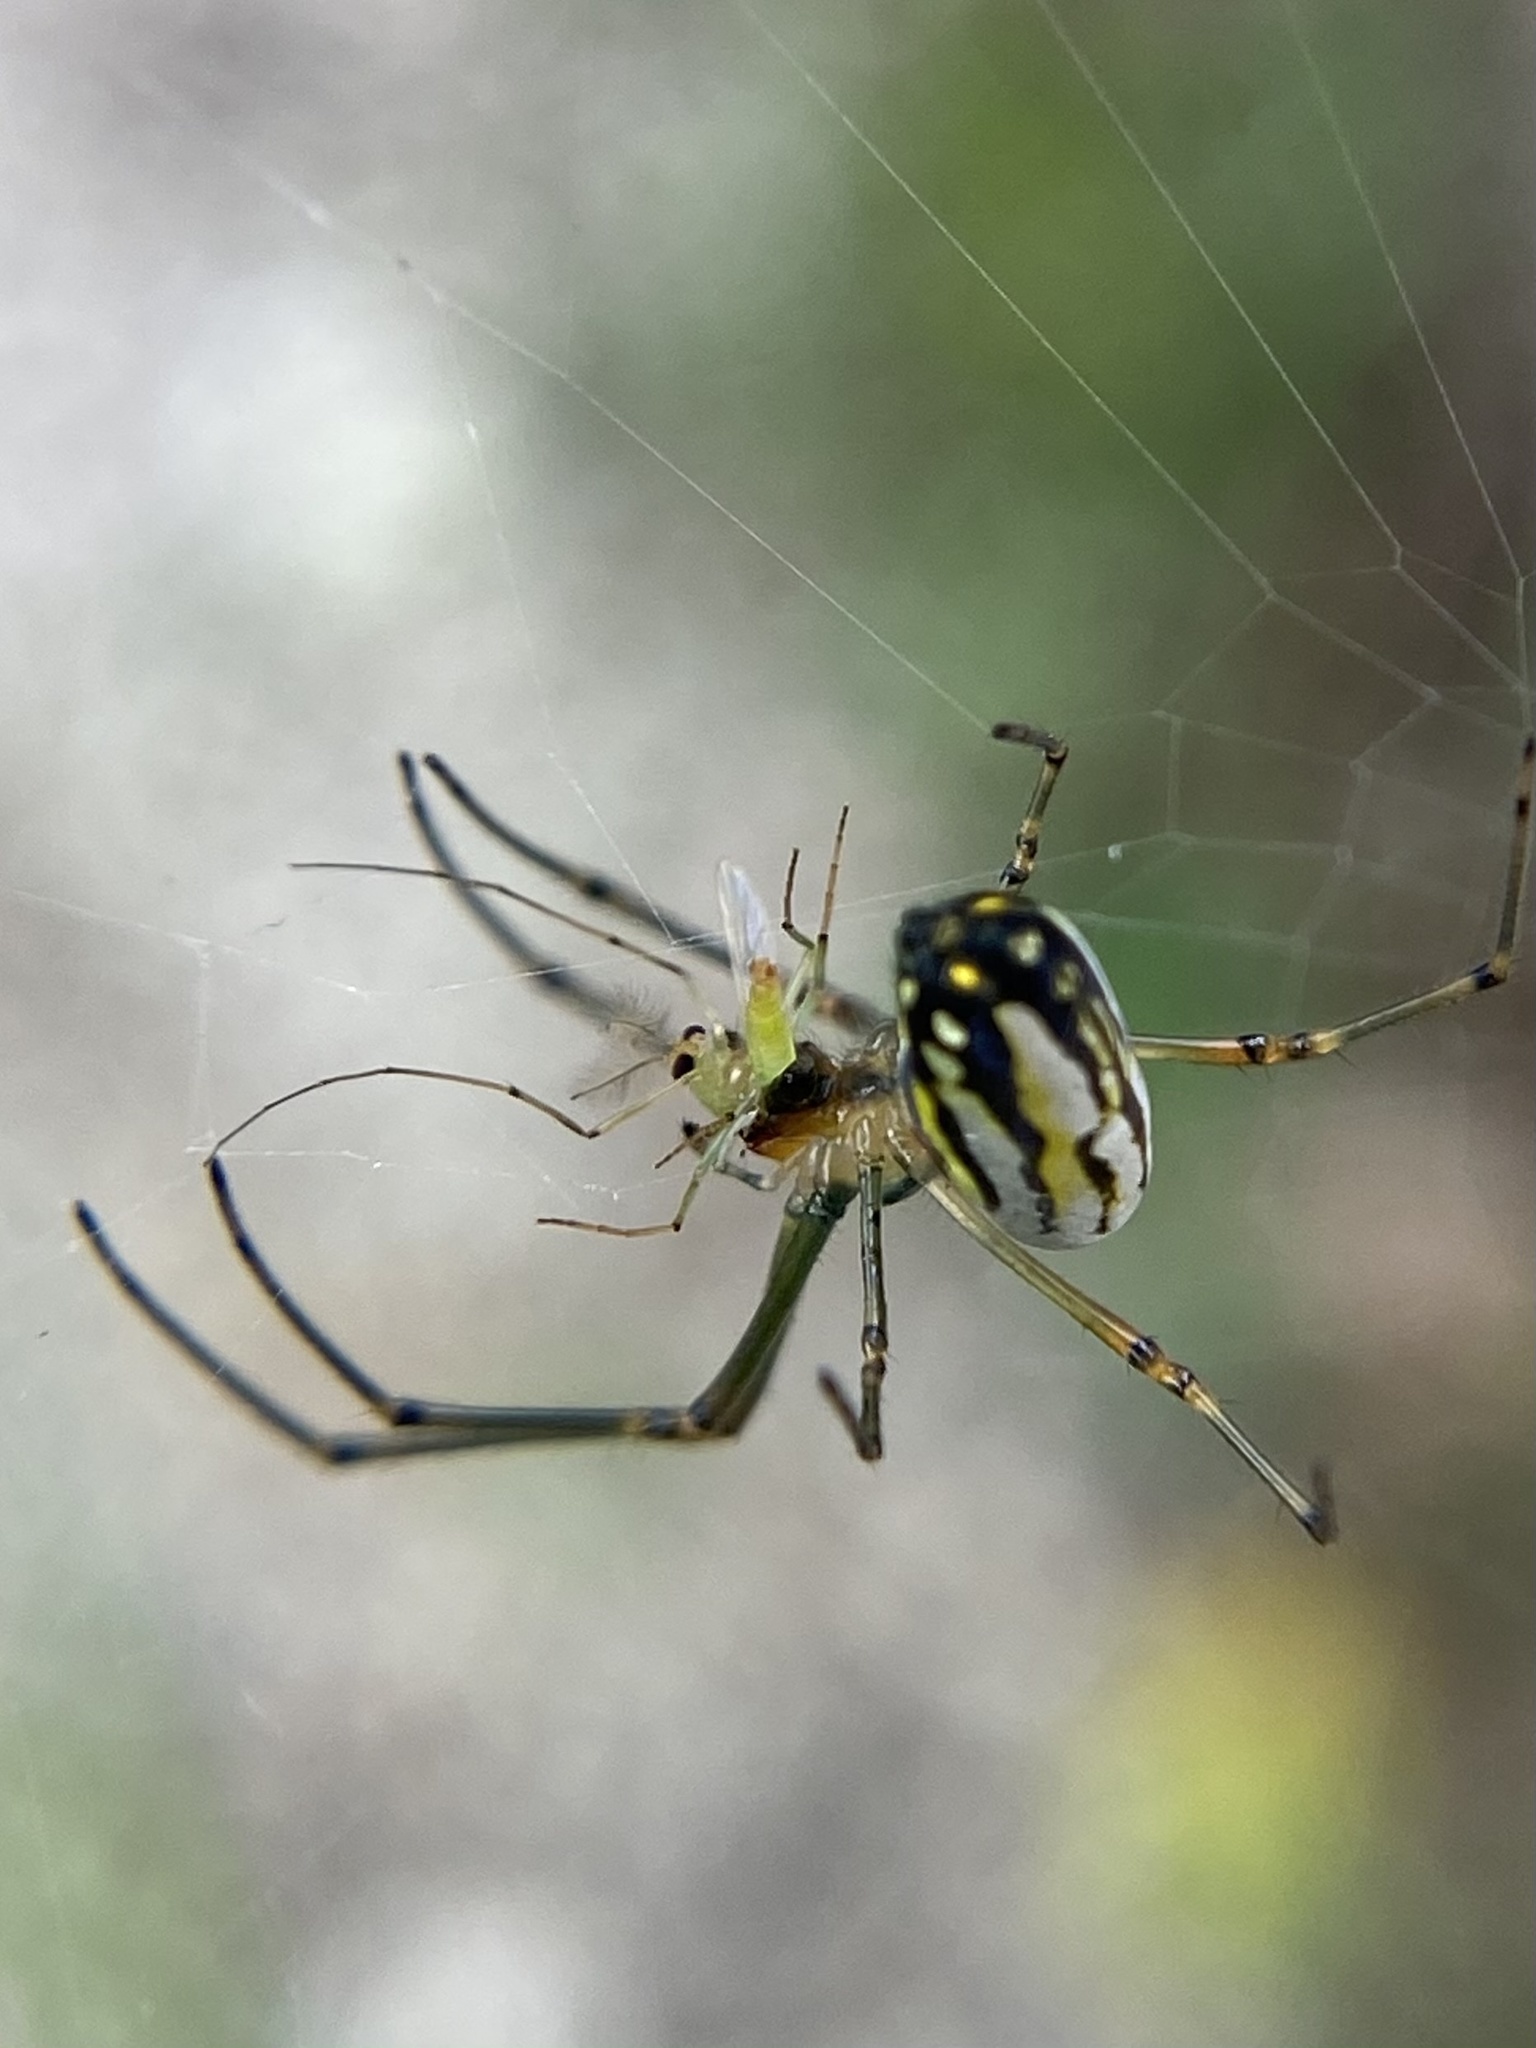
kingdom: Animalia
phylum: Arthropoda
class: Arachnida
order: Araneae
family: Tetragnathidae
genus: Leucauge
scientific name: Leucauge argyra
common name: Longjawed orb weavers
